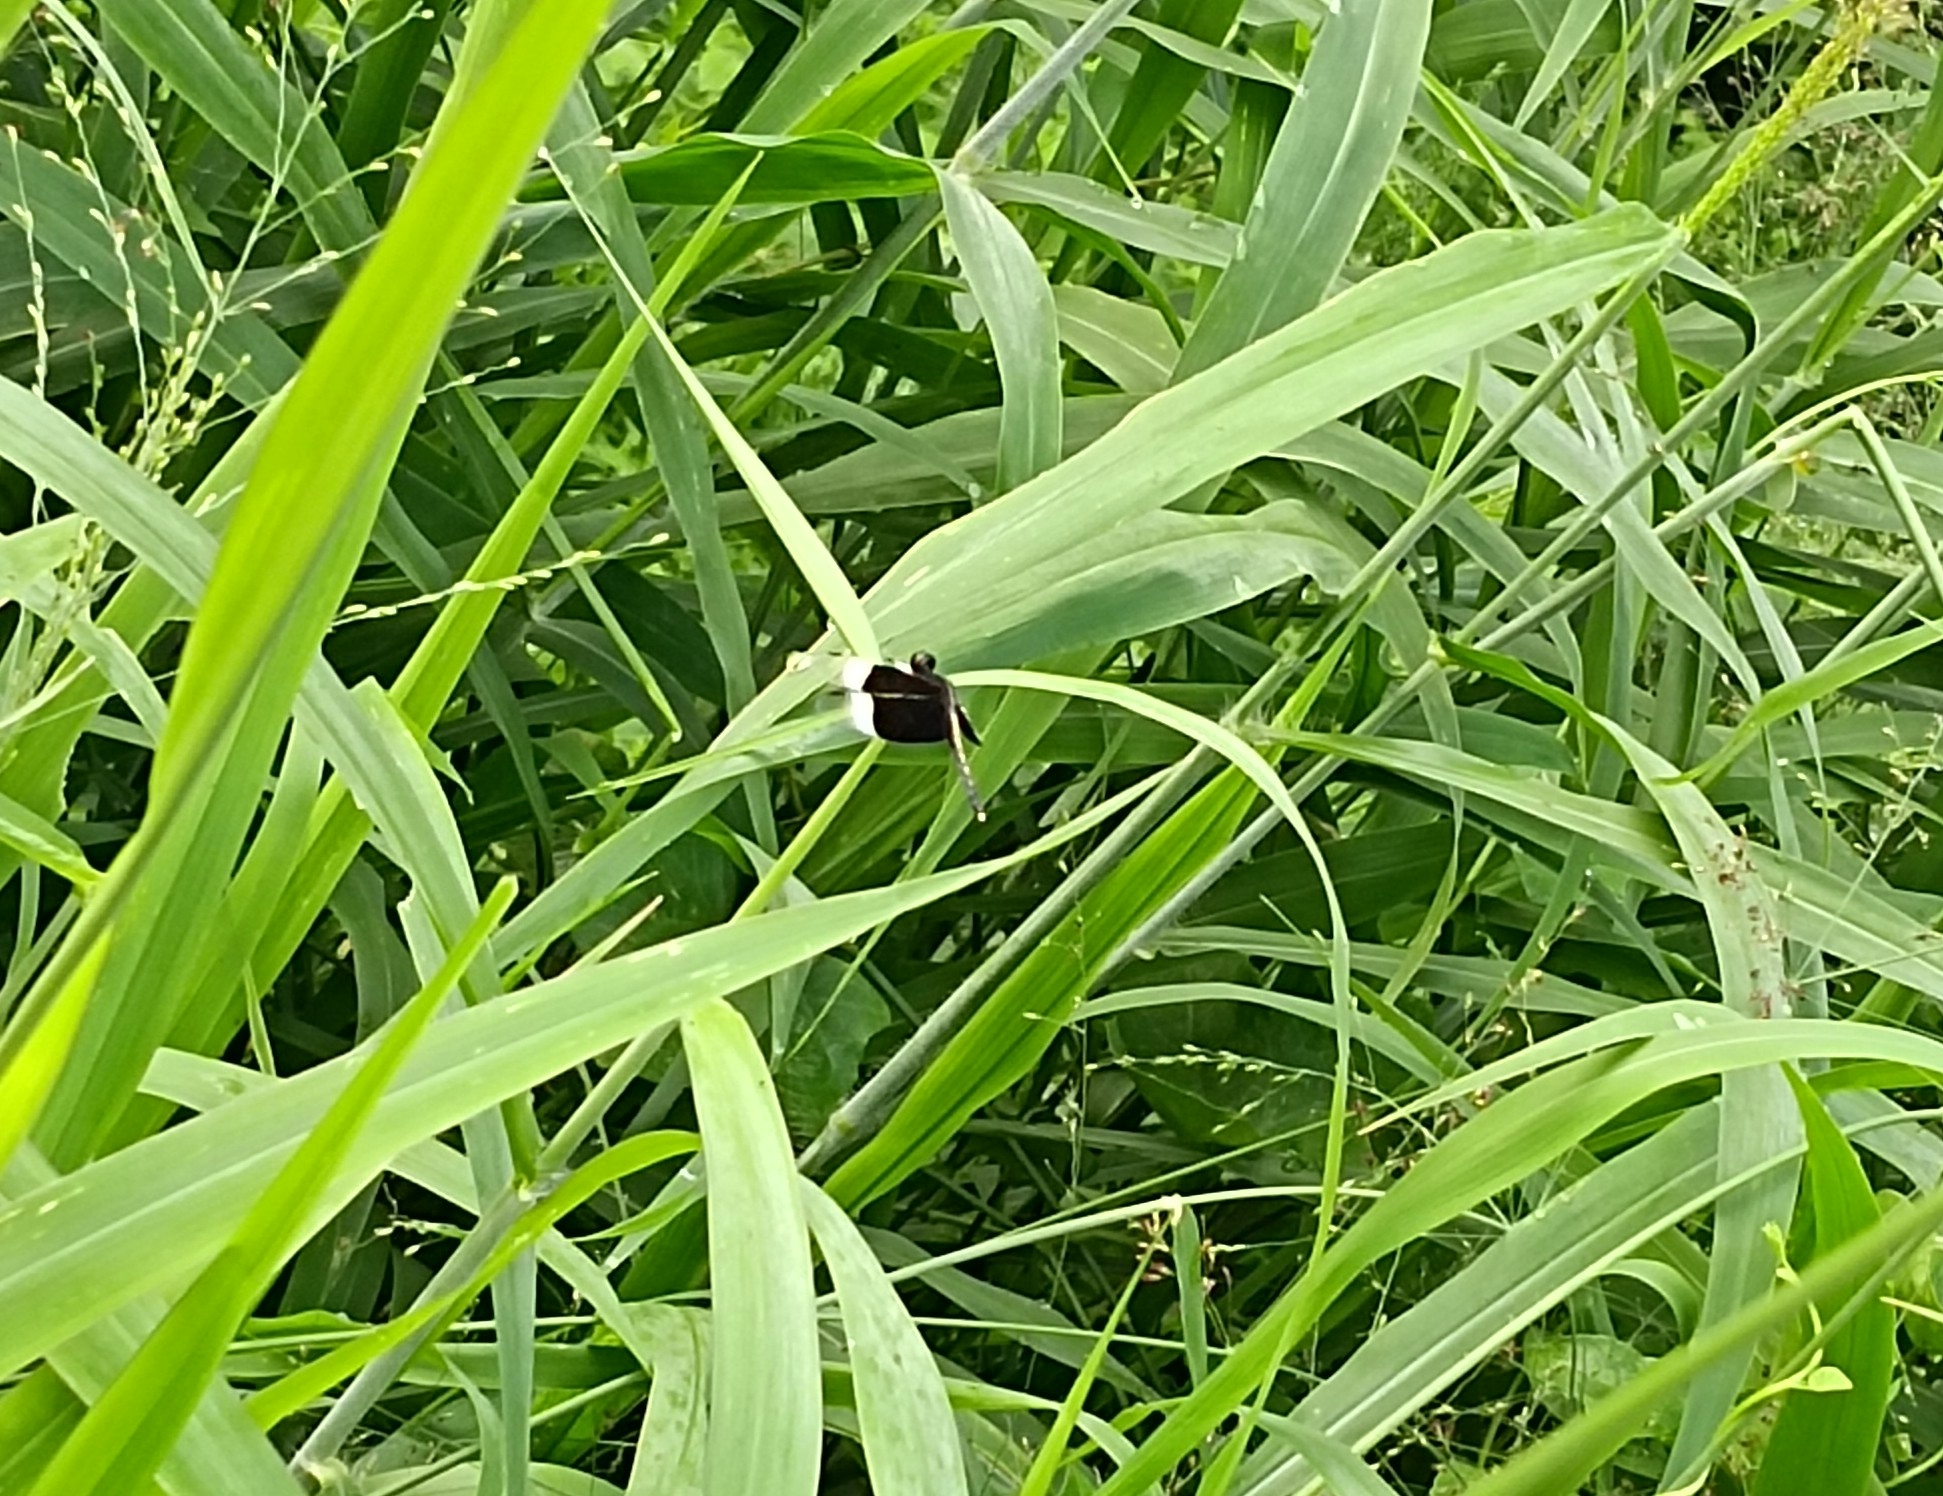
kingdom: Animalia
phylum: Arthropoda
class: Insecta
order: Odonata
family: Libellulidae
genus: Neurothemis
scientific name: Neurothemis tullia
